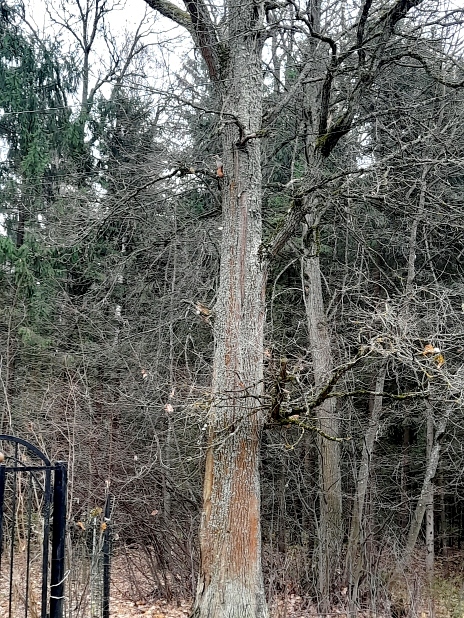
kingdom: Plantae
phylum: Tracheophyta
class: Magnoliopsida
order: Fagales
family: Fagaceae
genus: Quercus
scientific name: Quercus robur
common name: Pedunculate oak
